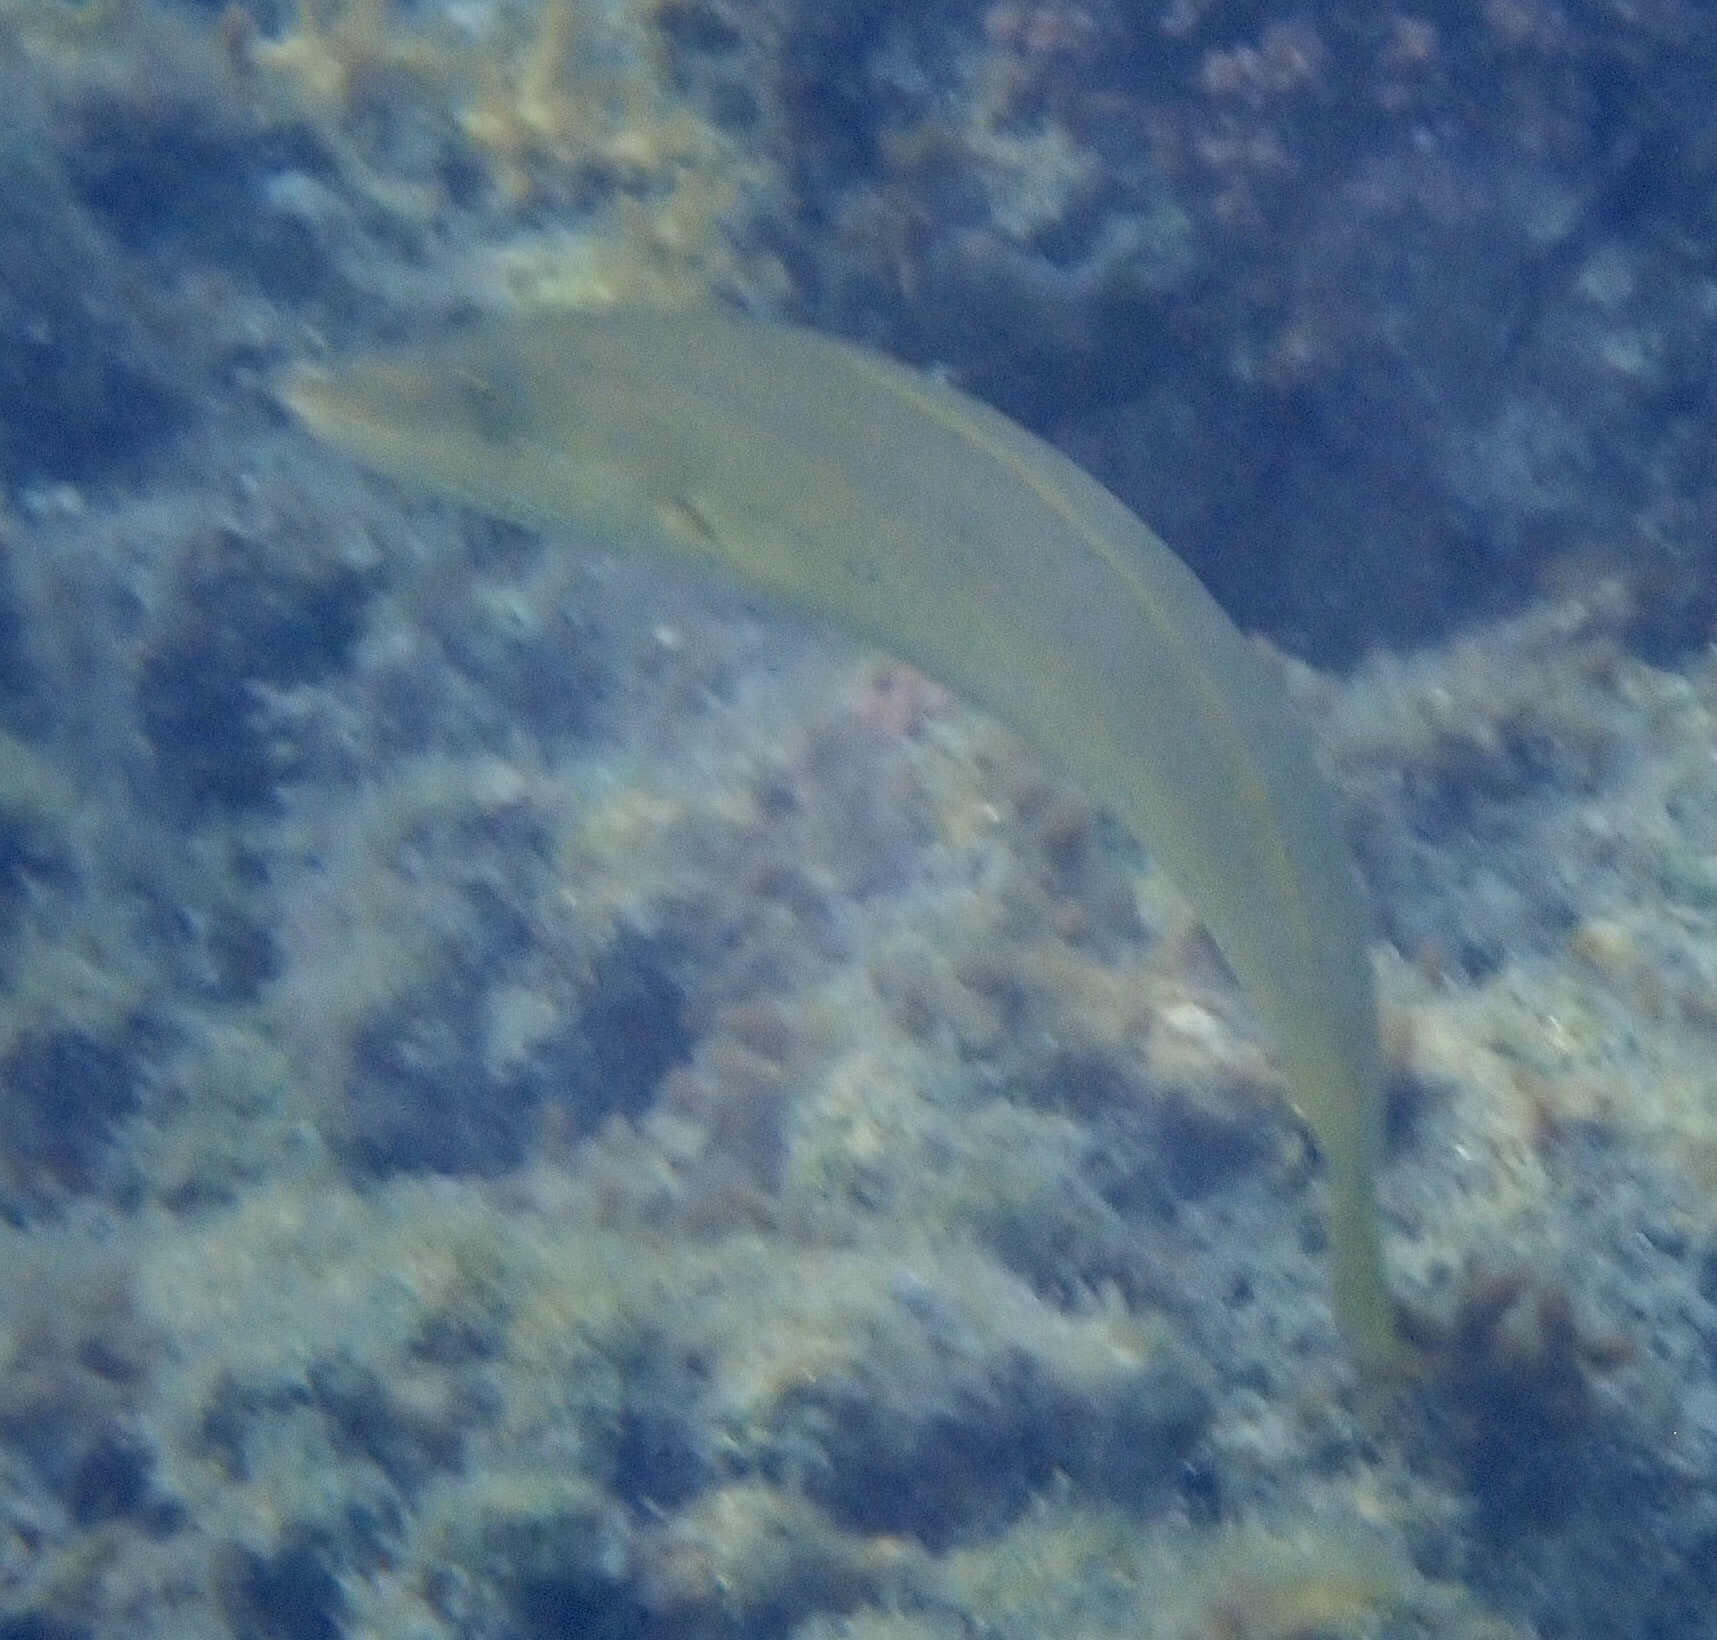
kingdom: Animalia
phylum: Chordata
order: Perciformes
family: Labridae
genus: Cheilio
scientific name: Cheilio inermis
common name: Cigar wrasse
